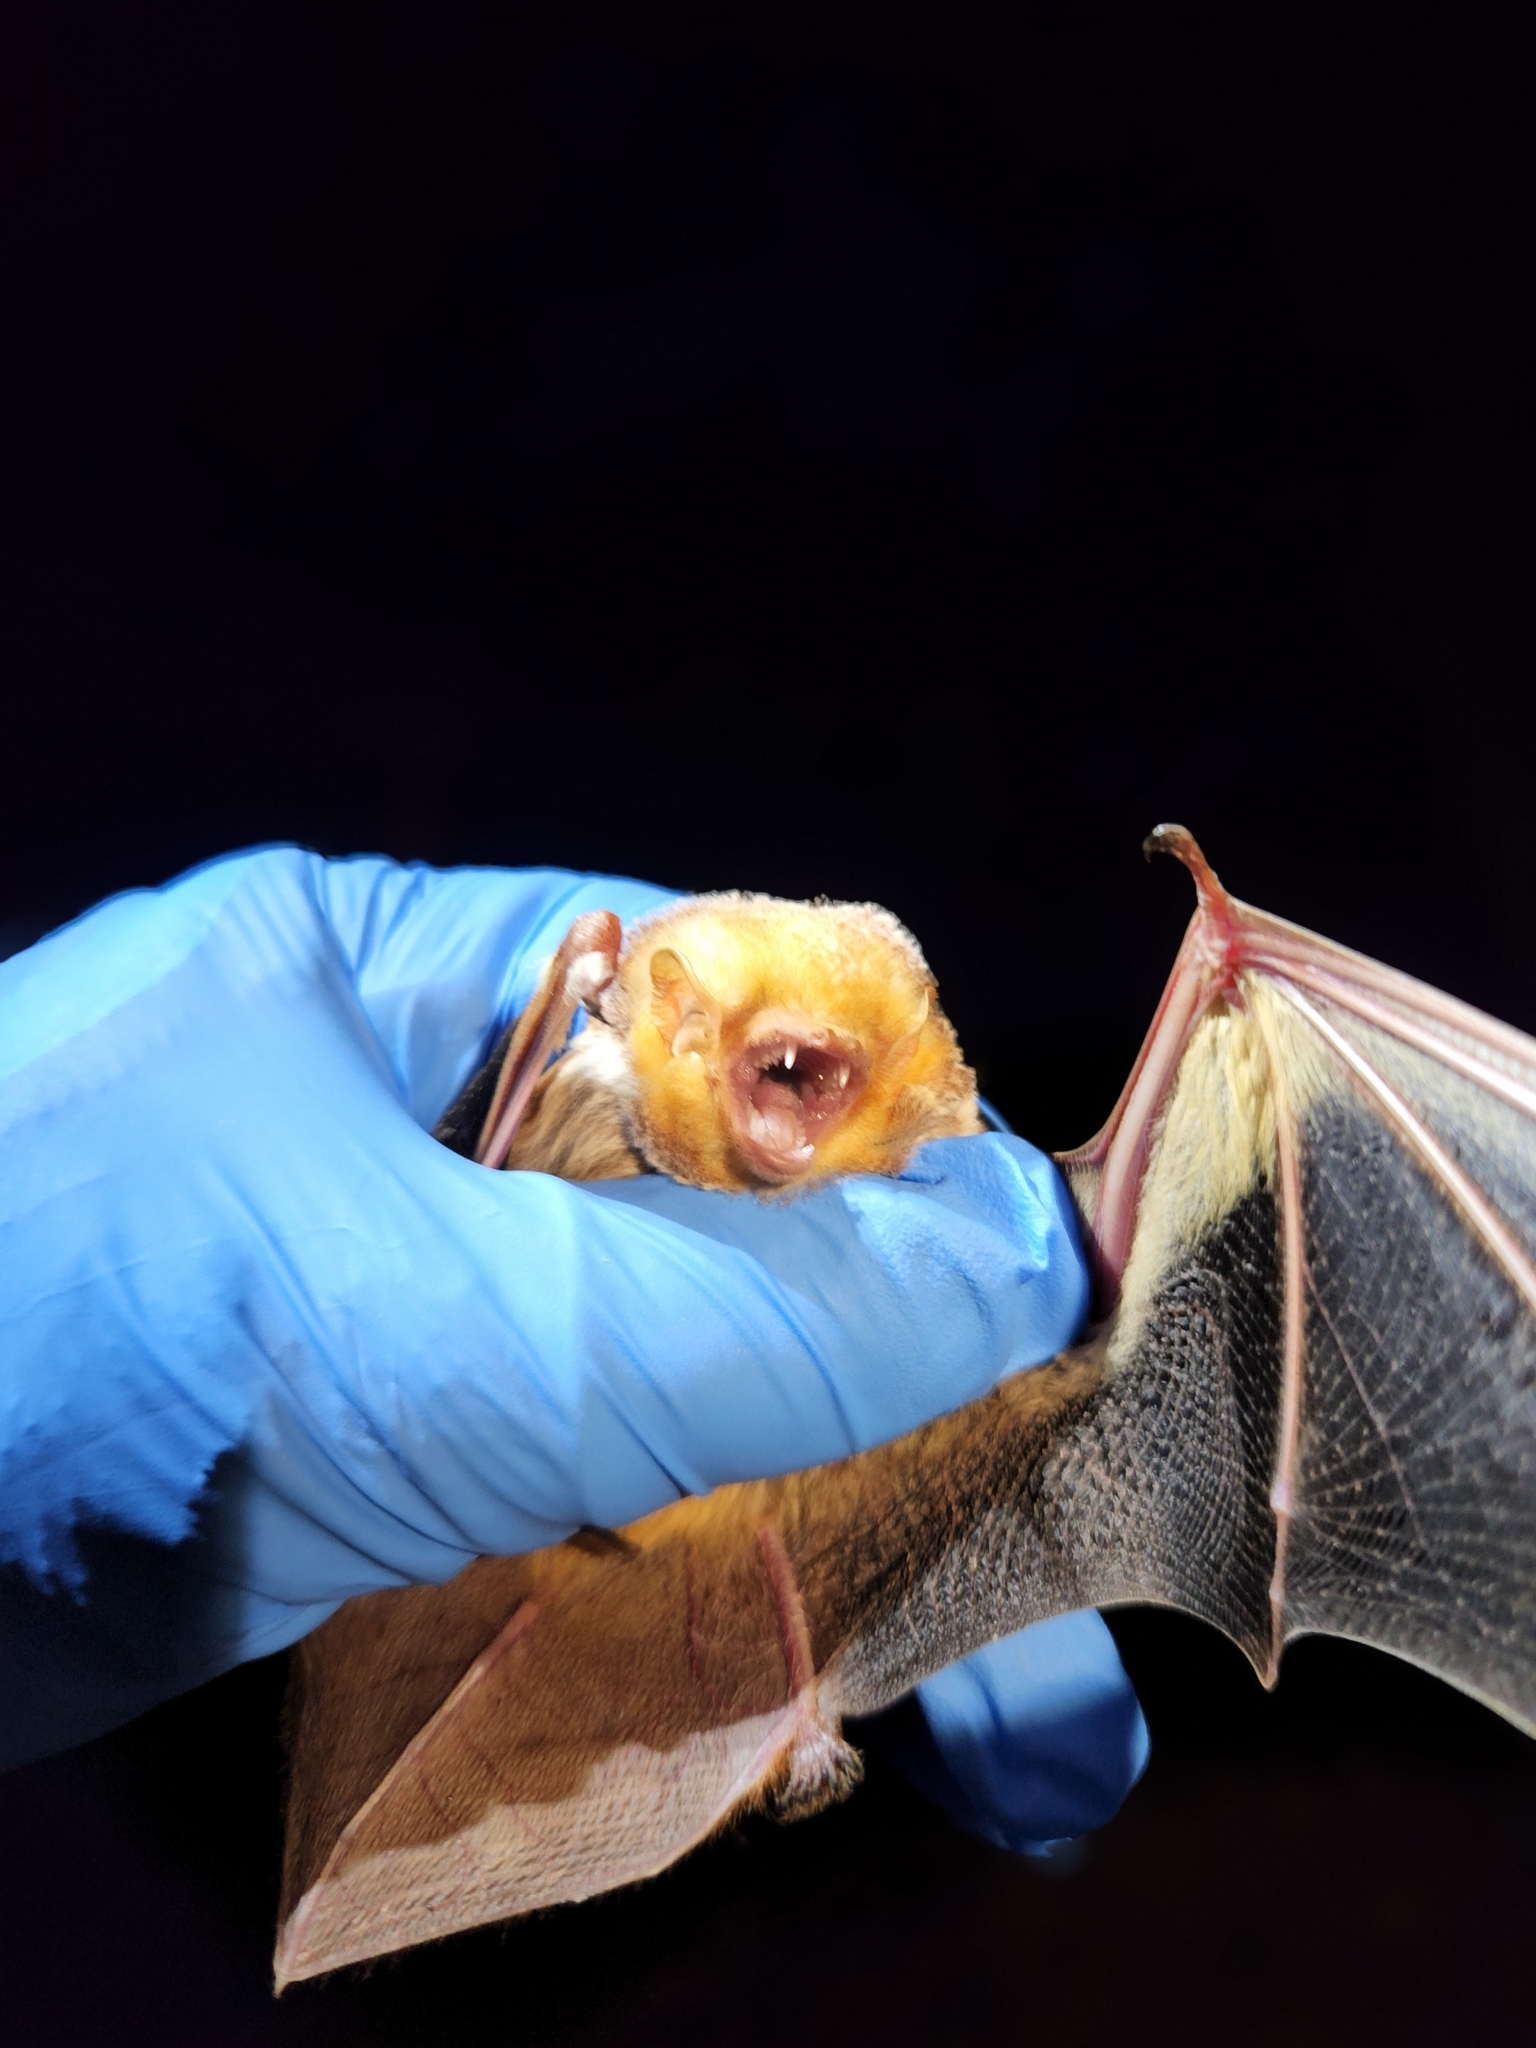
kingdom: Animalia
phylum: Chordata
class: Mammalia
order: Chiroptera
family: Vespertilionidae
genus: Lasiurus
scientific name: Lasiurus borealis
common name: Eastern red bat
